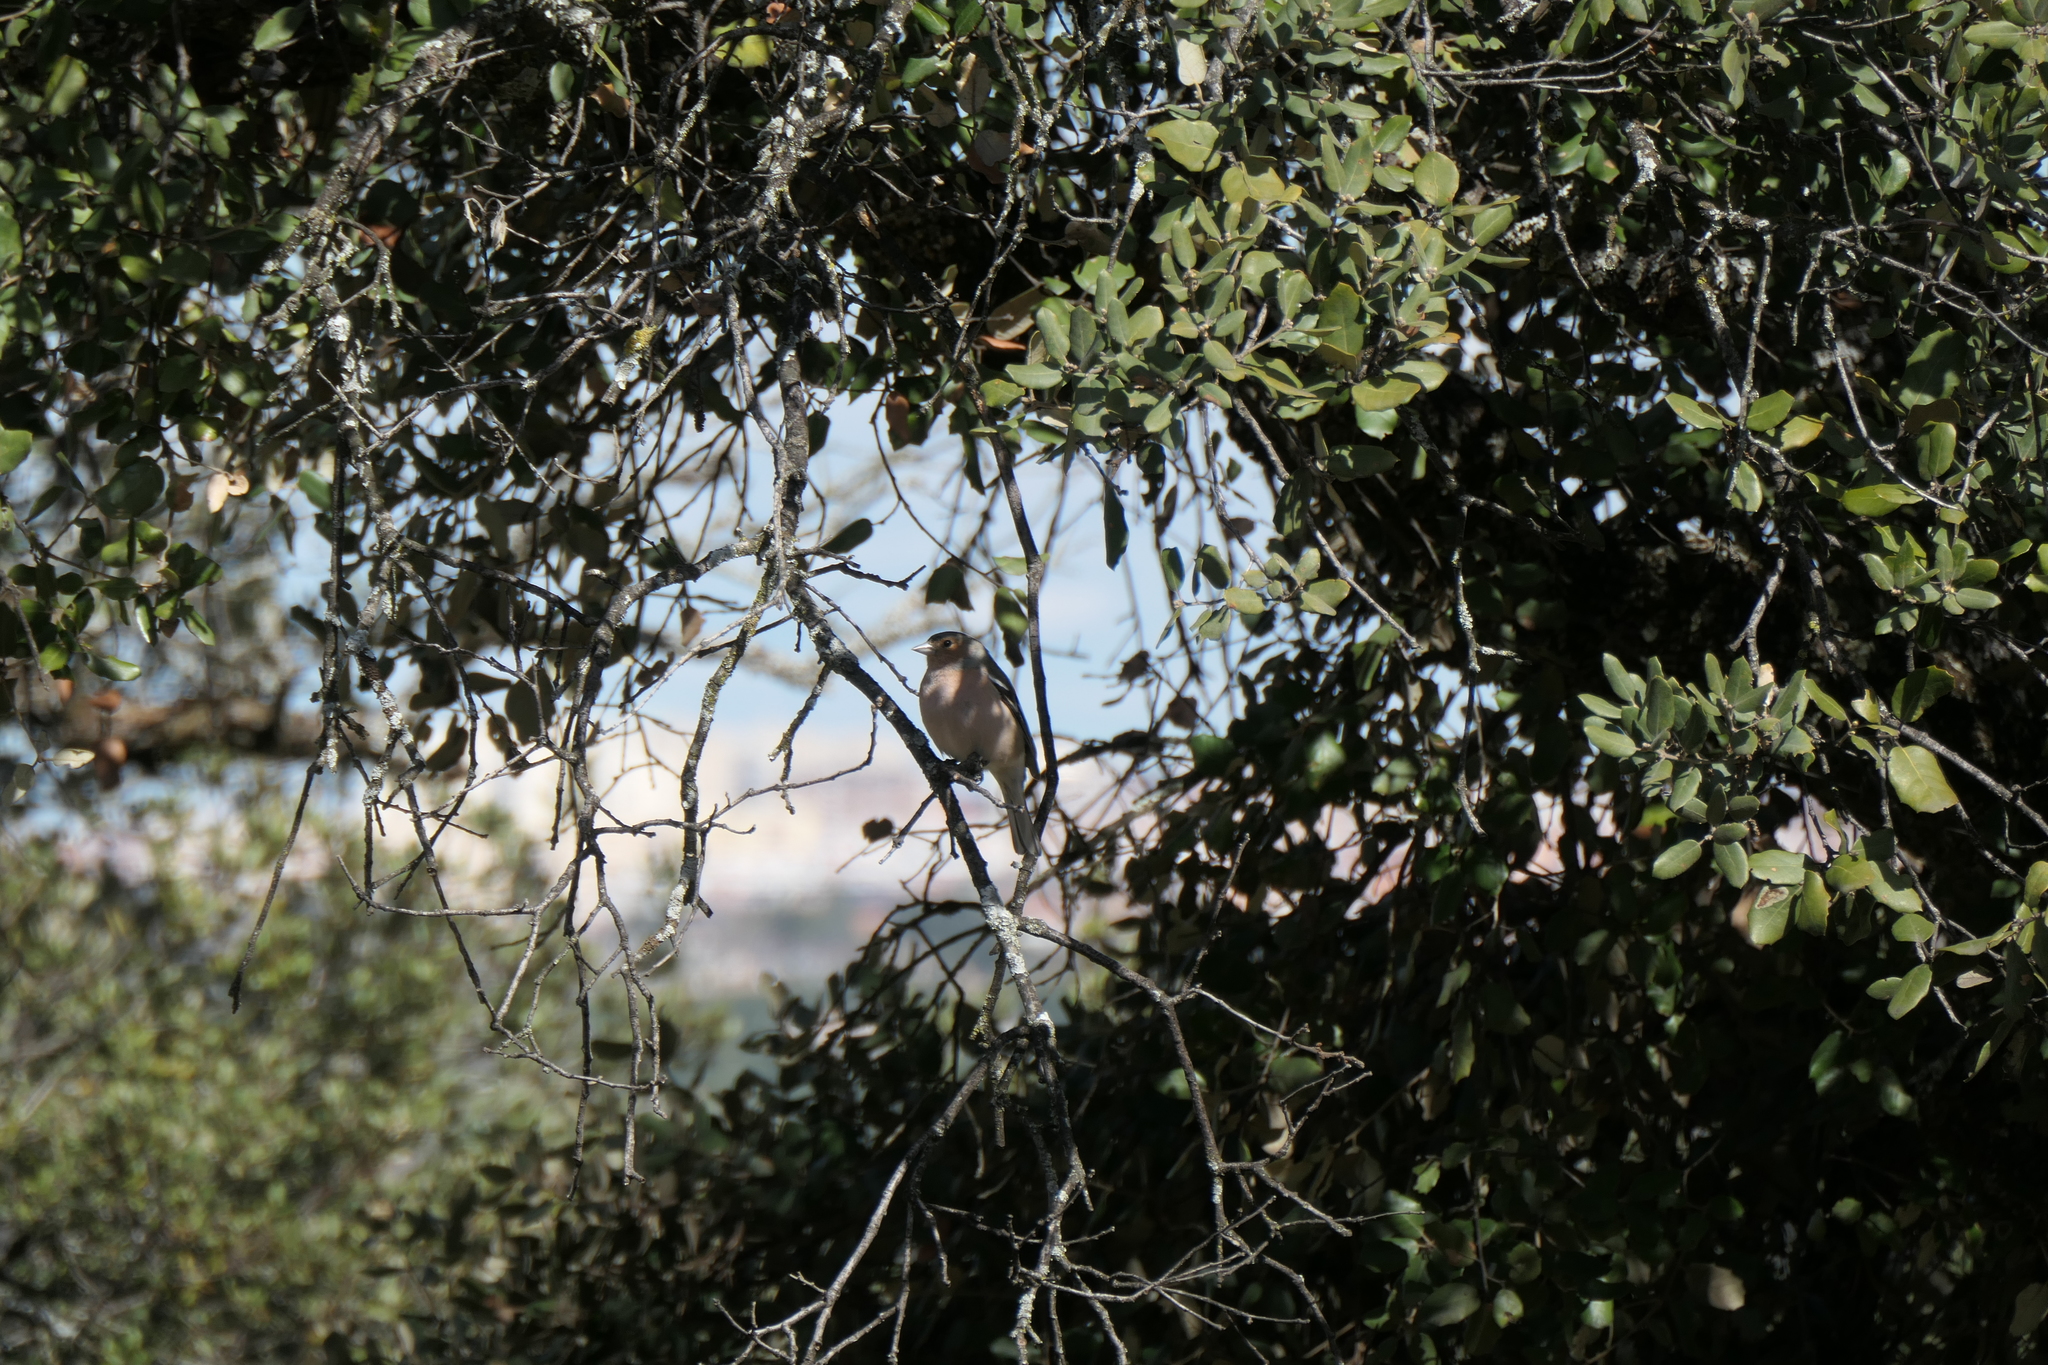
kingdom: Animalia
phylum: Chordata
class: Aves
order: Passeriformes
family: Fringillidae
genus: Fringilla
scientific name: Fringilla coelebs
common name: Common chaffinch
